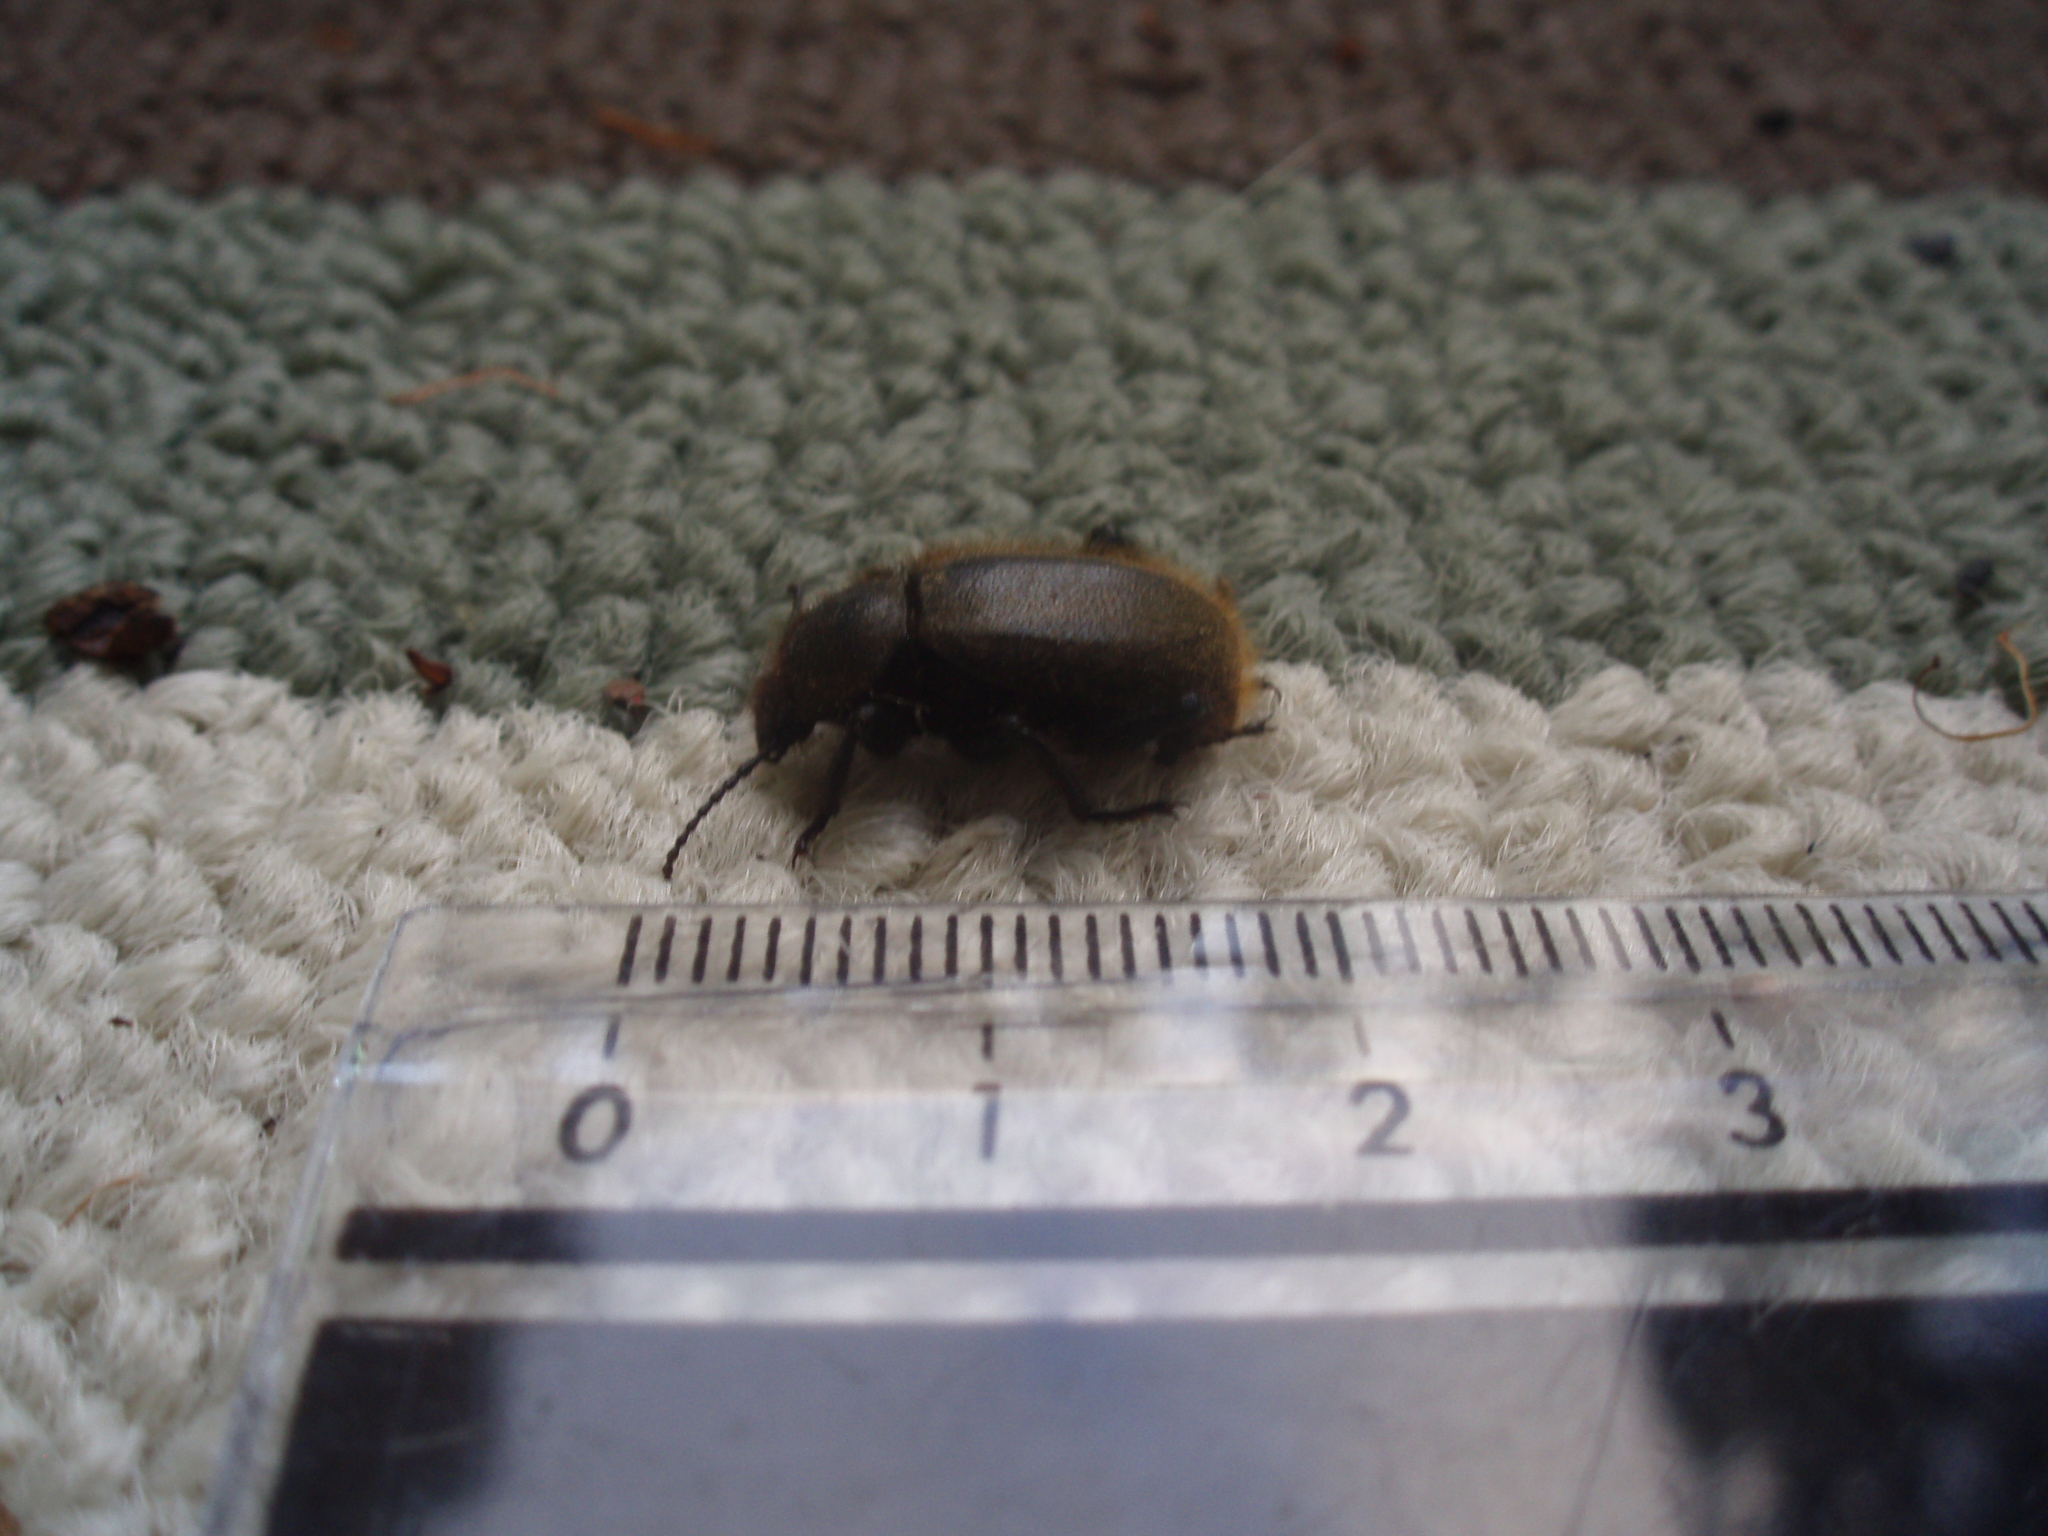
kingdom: Animalia
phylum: Arthropoda
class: Insecta
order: Coleoptera
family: Tenebrionidae
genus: Eleodes
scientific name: Eleodes osculans
